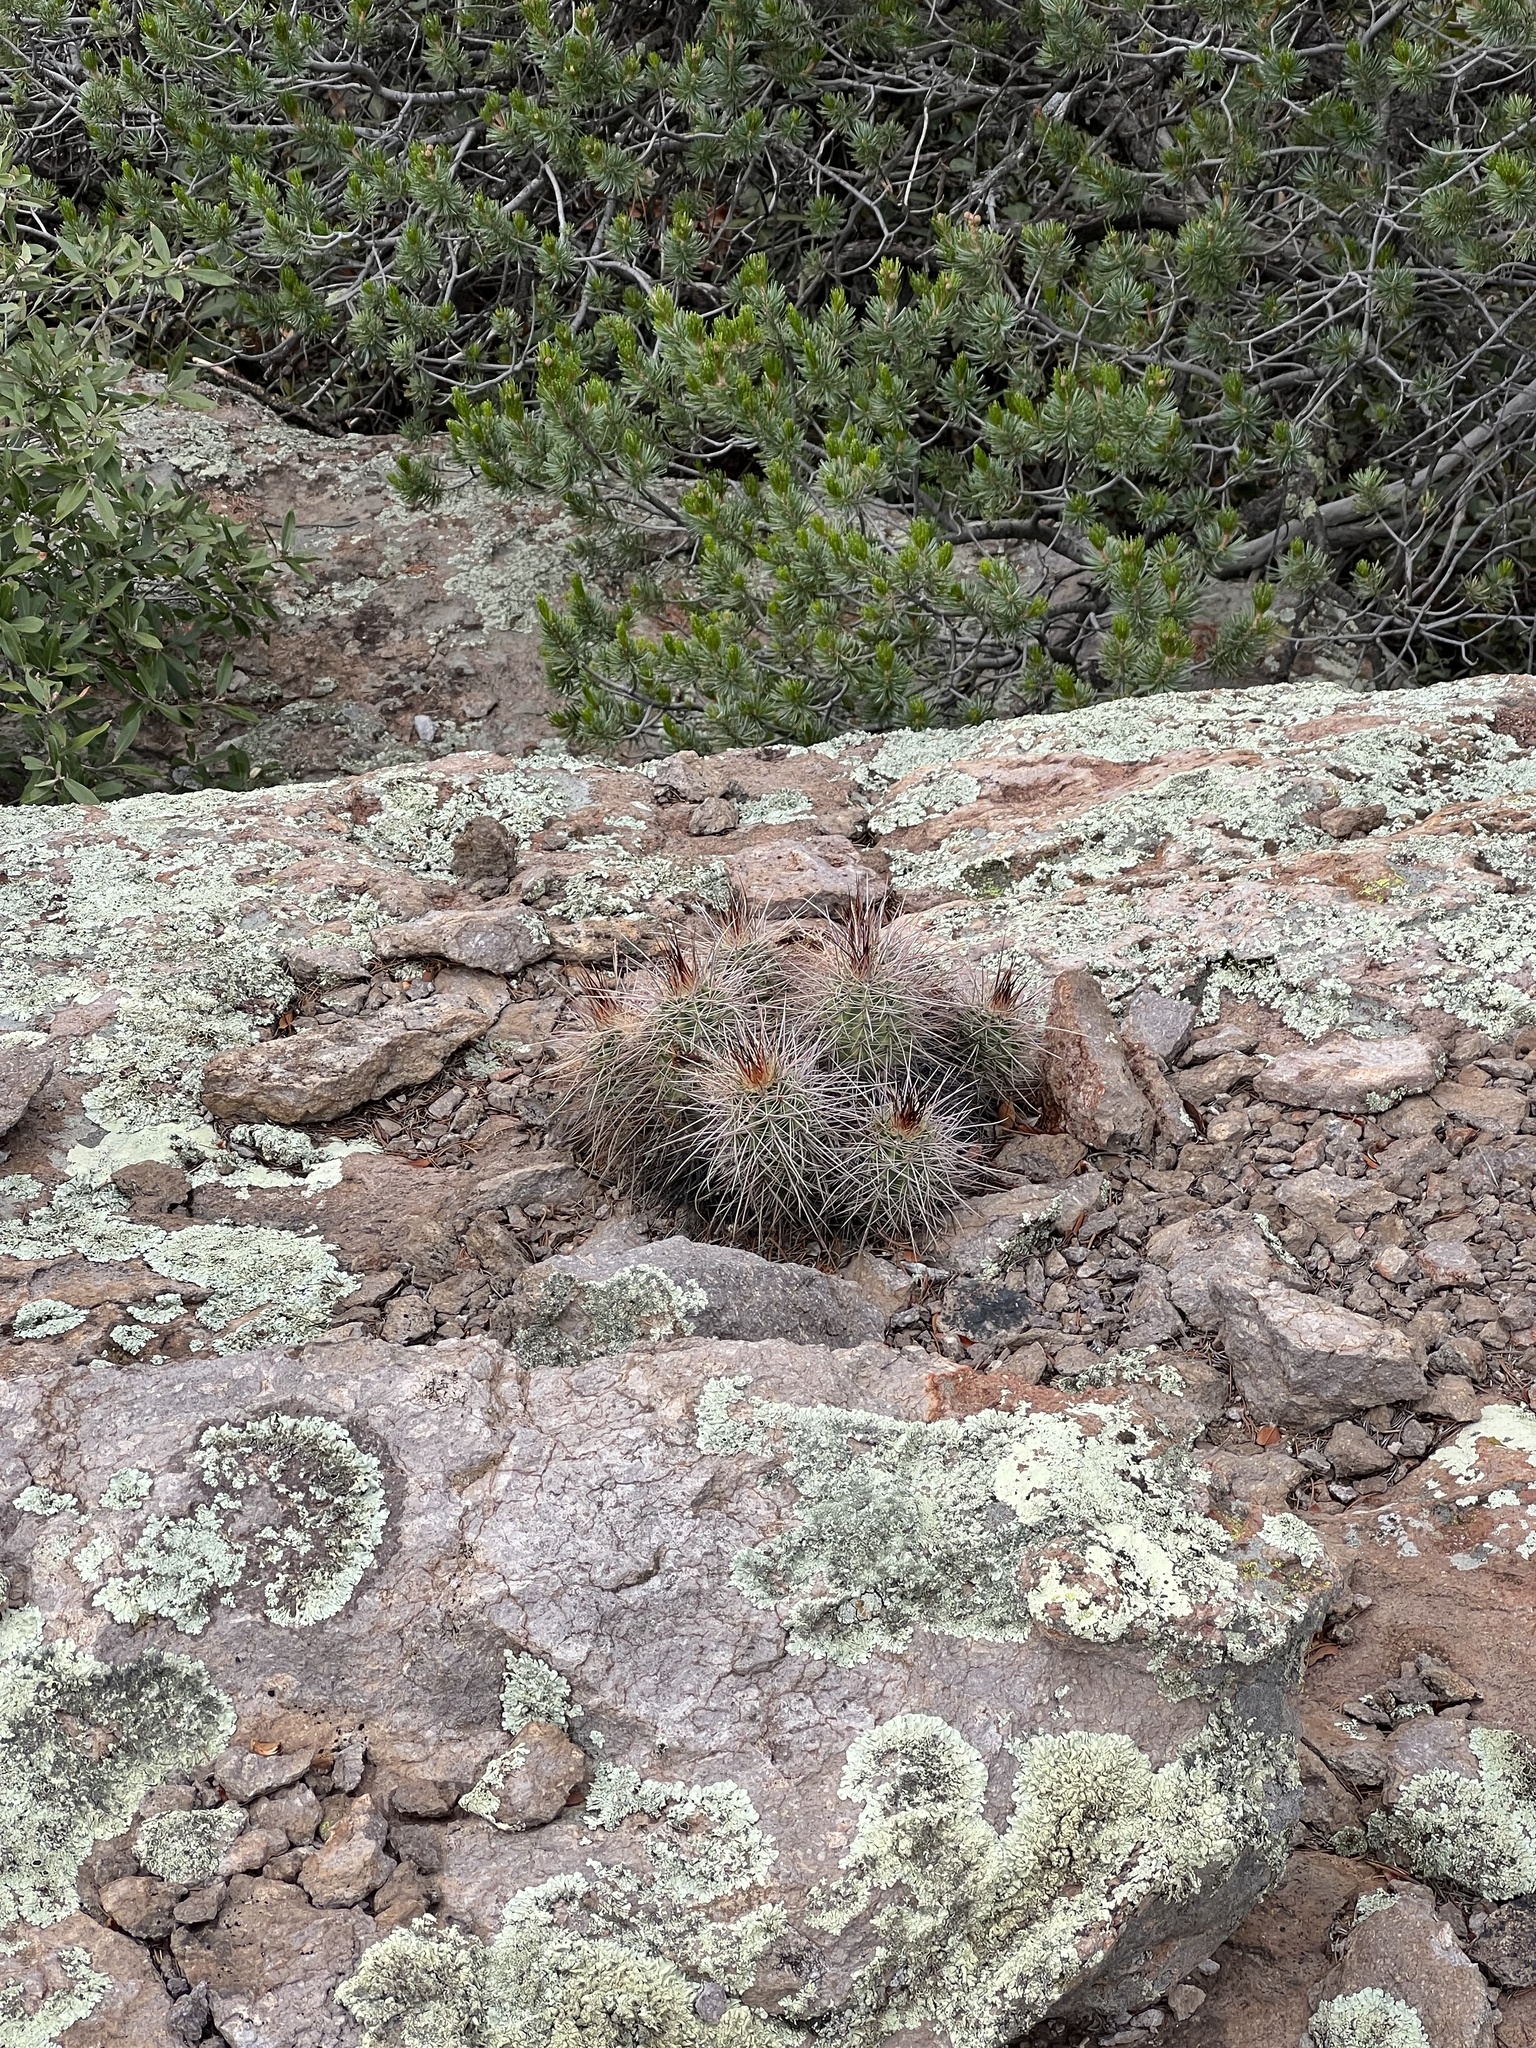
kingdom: Plantae
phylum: Tracheophyta
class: Magnoliopsida
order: Caryophyllales
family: Cactaceae
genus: Echinocereus
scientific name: Echinocereus arizonicus
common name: Arizona hedgehog cactus
